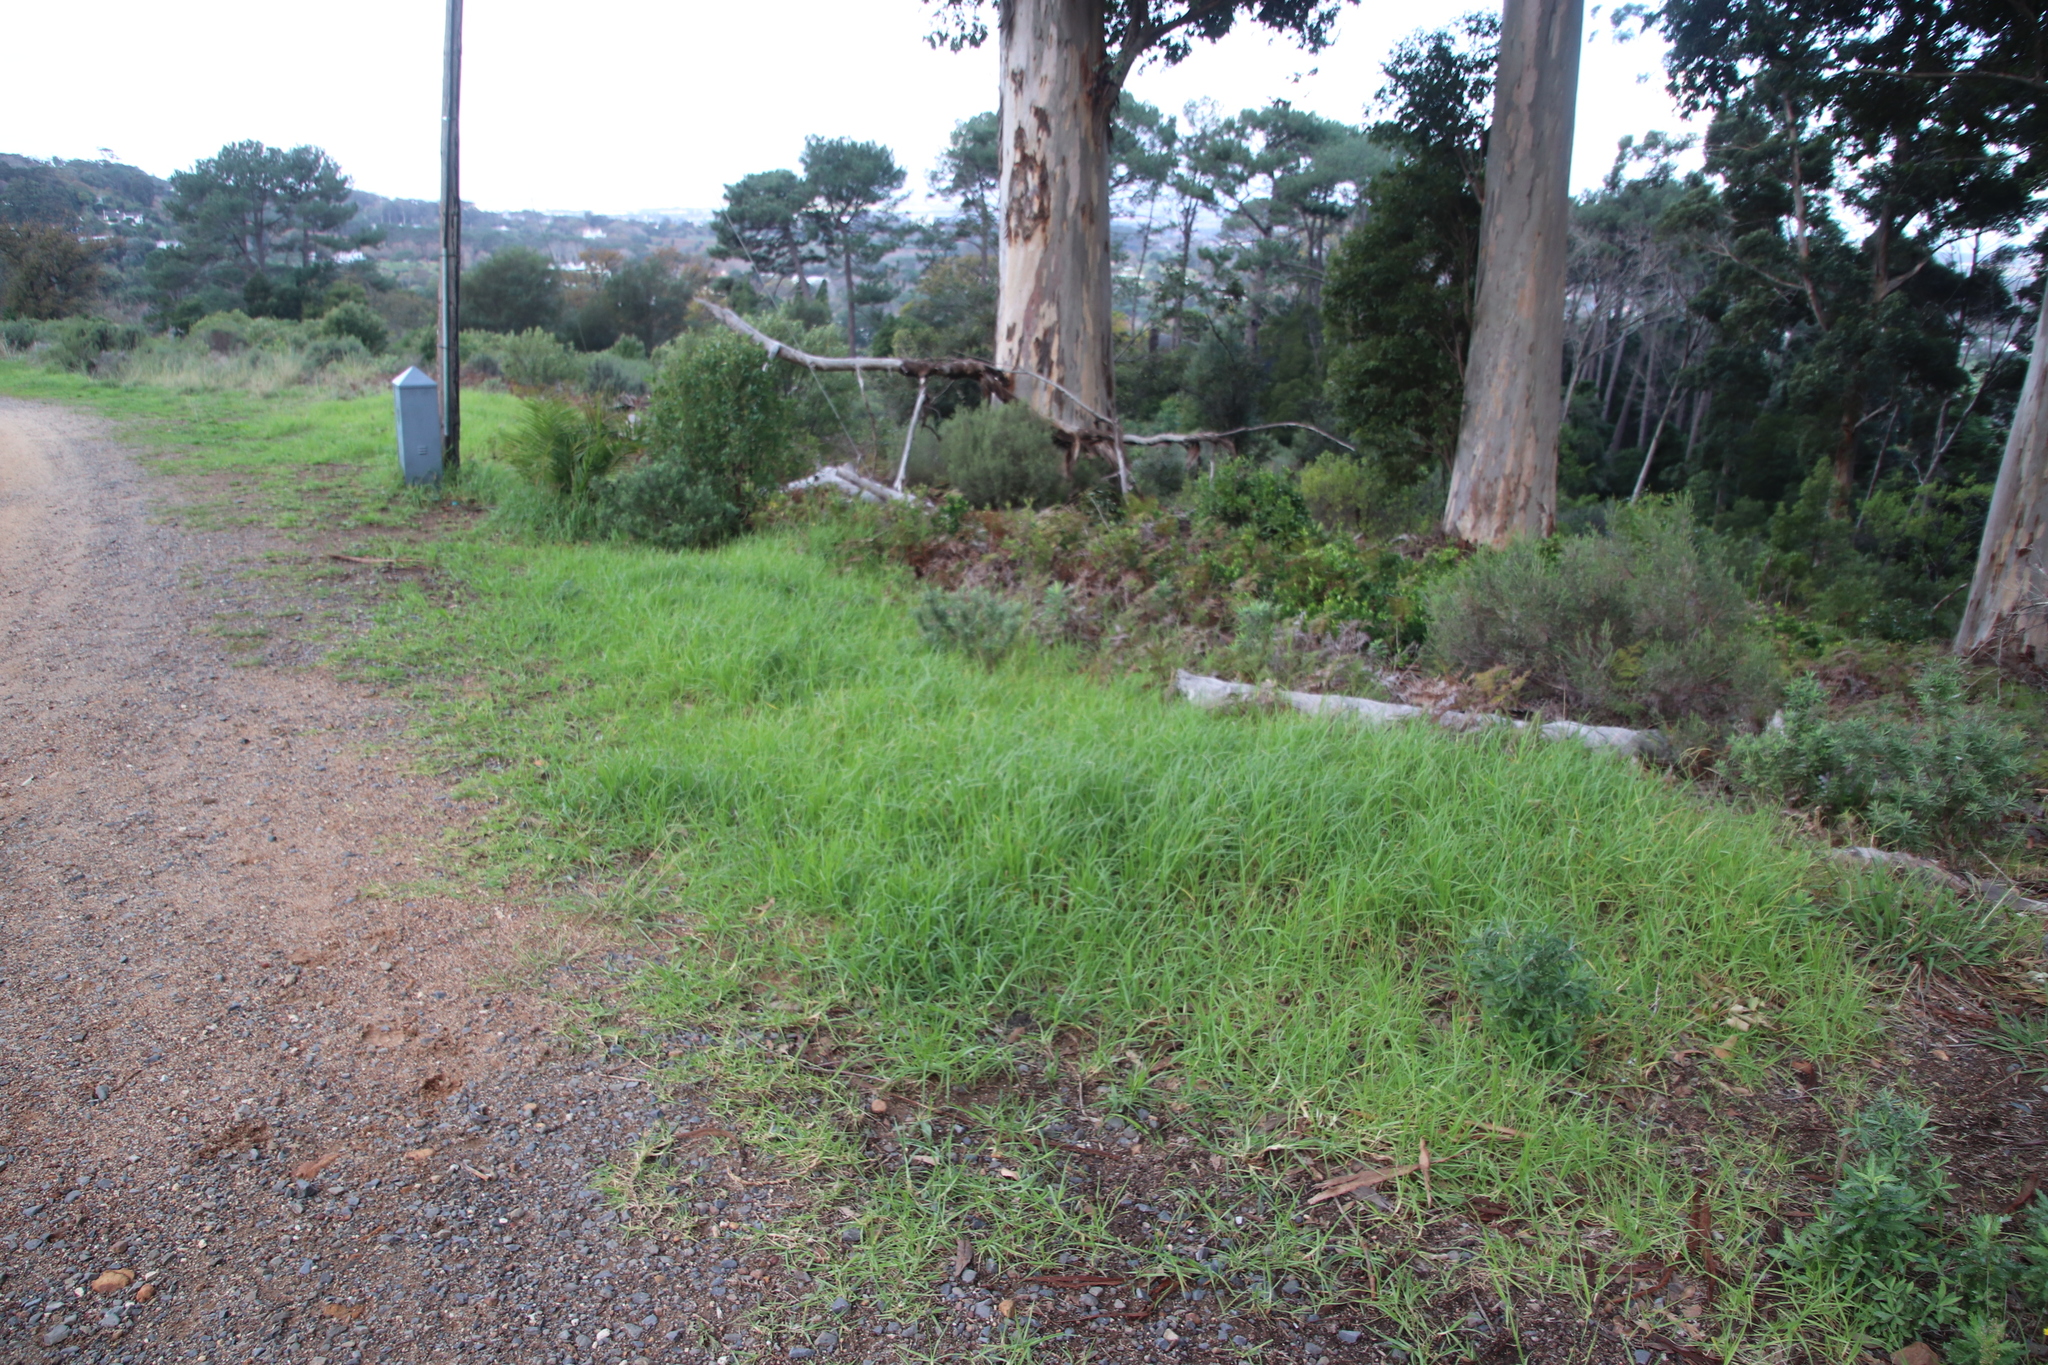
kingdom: Plantae
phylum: Tracheophyta
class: Liliopsida
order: Poales
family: Poaceae
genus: Cenchrus
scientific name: Cenchrus clandestinus
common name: Kikuyugrass
